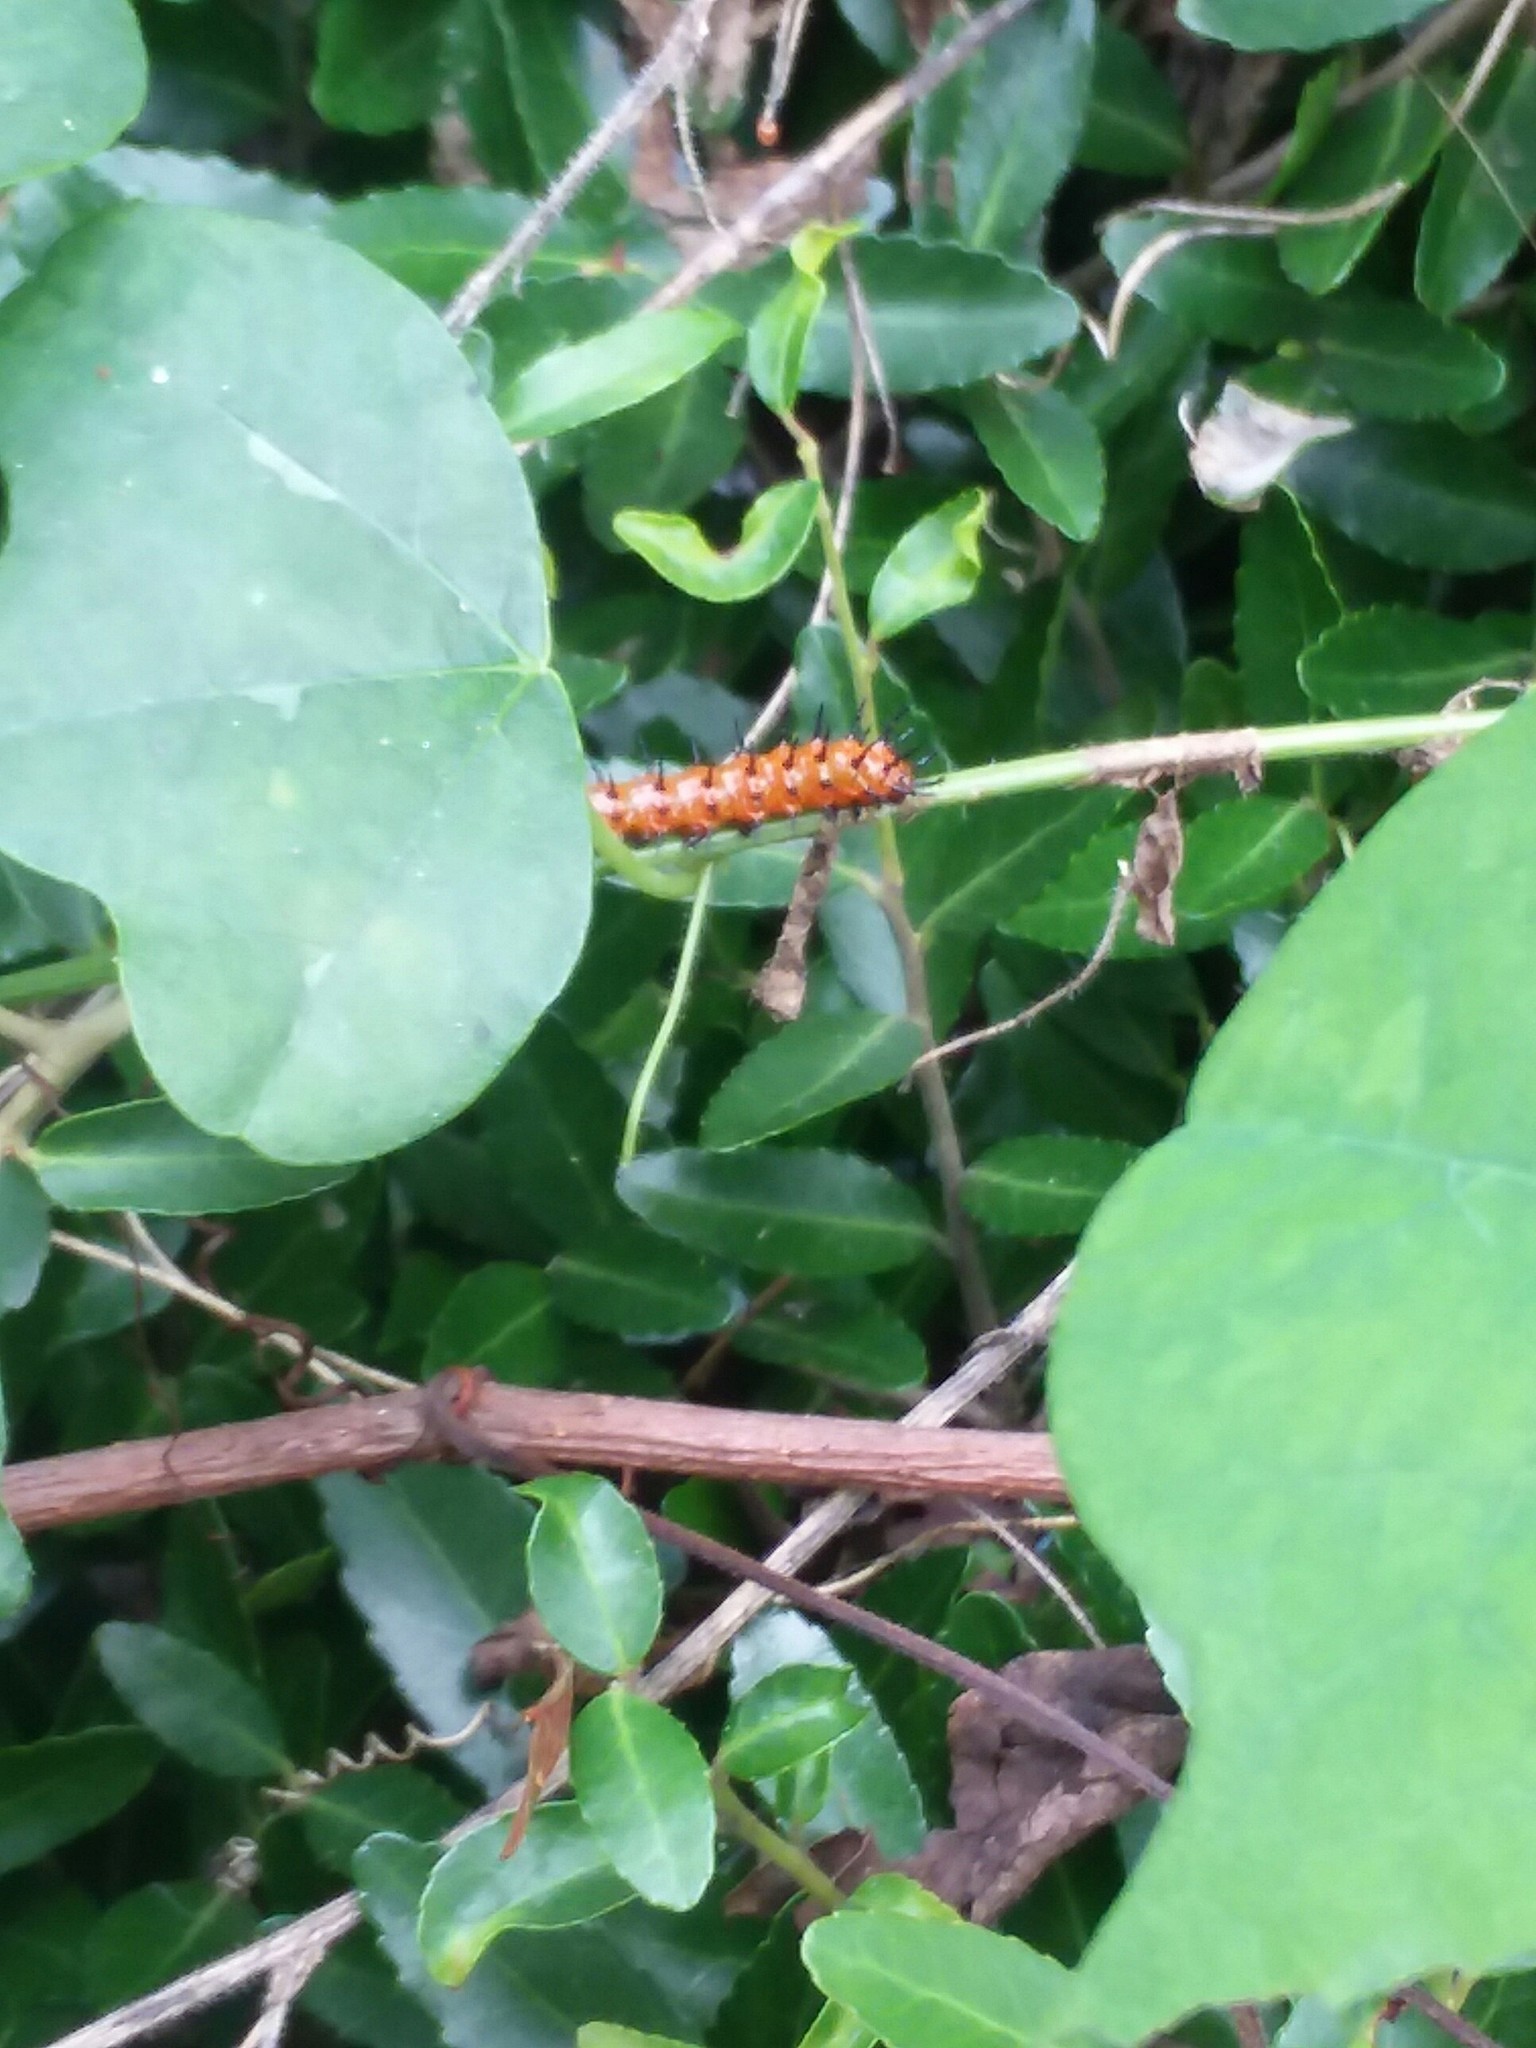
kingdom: Animalia
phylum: Arthropoda
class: Insecta
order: Lepidoptera
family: Nymphalidae
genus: Dione
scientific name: Dione vanillae
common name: Gulf fritillary
